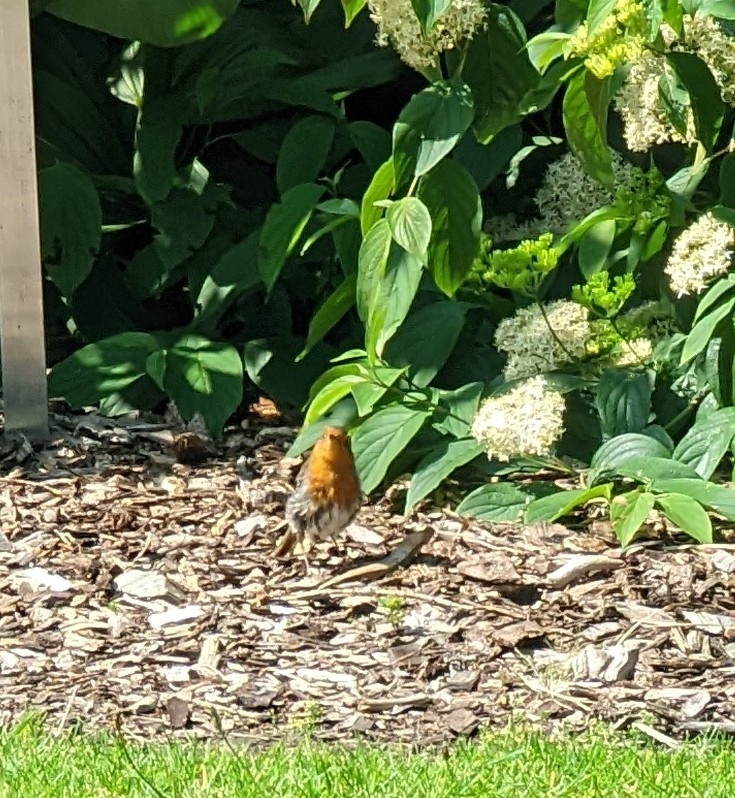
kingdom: Animalia
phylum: Chordata
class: Aves
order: Passeriformes
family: Muscicapidae
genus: Erithacus
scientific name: Erithacus rubecula
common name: European robin
